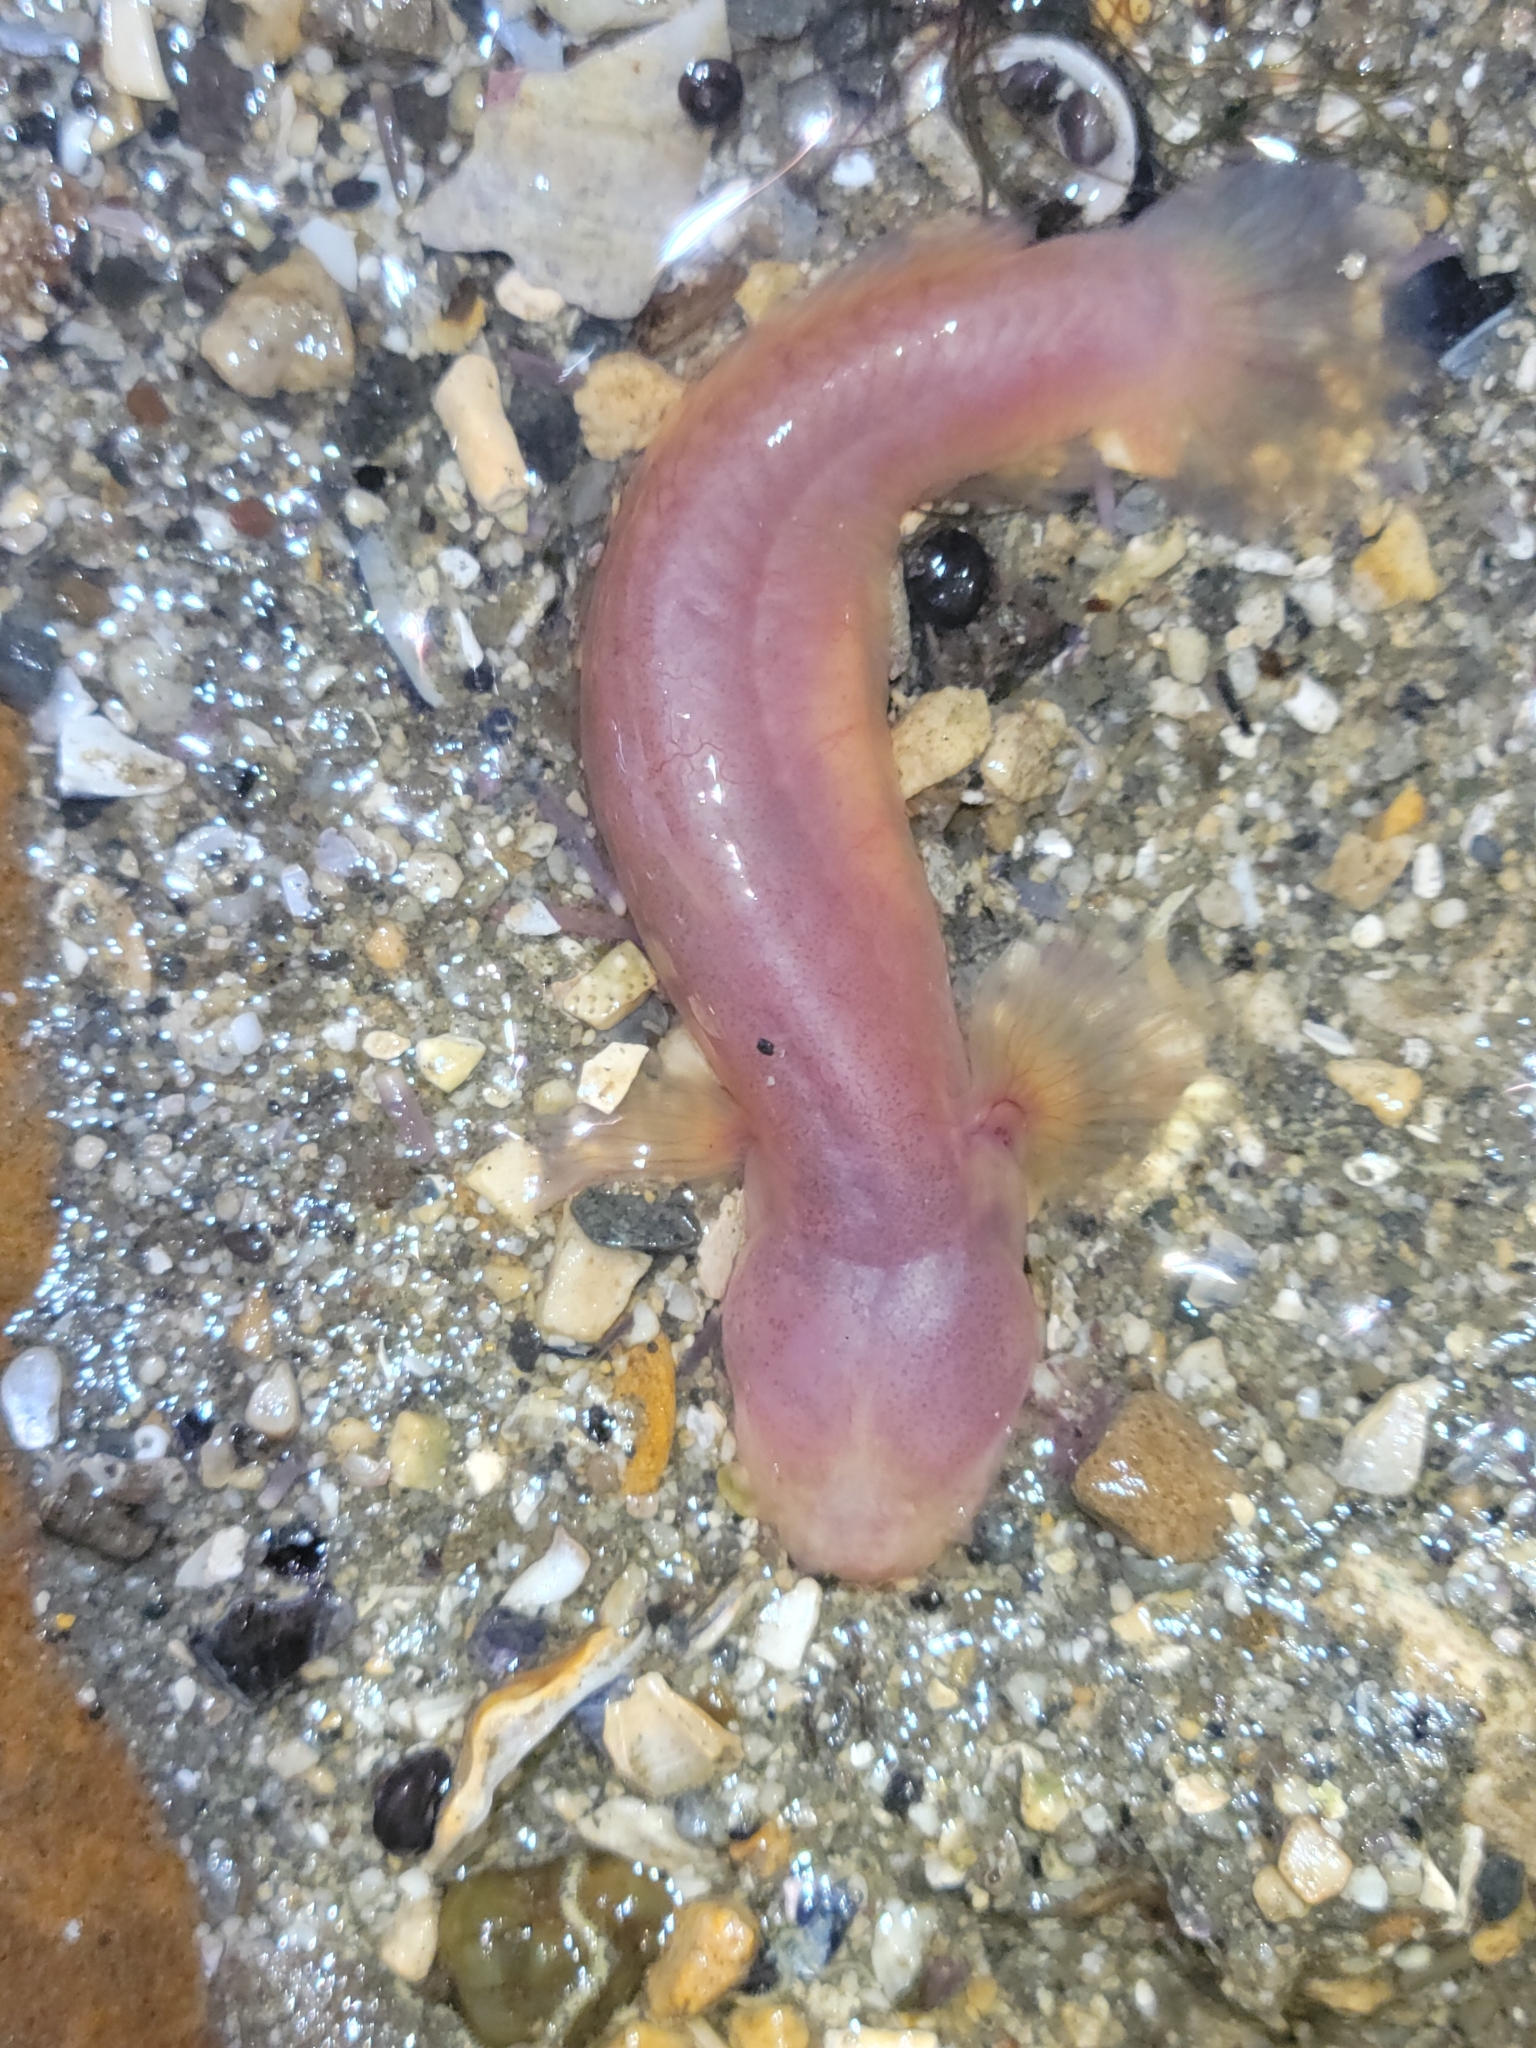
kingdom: Animalia
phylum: Chordata
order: Perciformes
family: Gobiidae
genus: Typhlogobius
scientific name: Typhlogobius californiensis
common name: Blind goby
